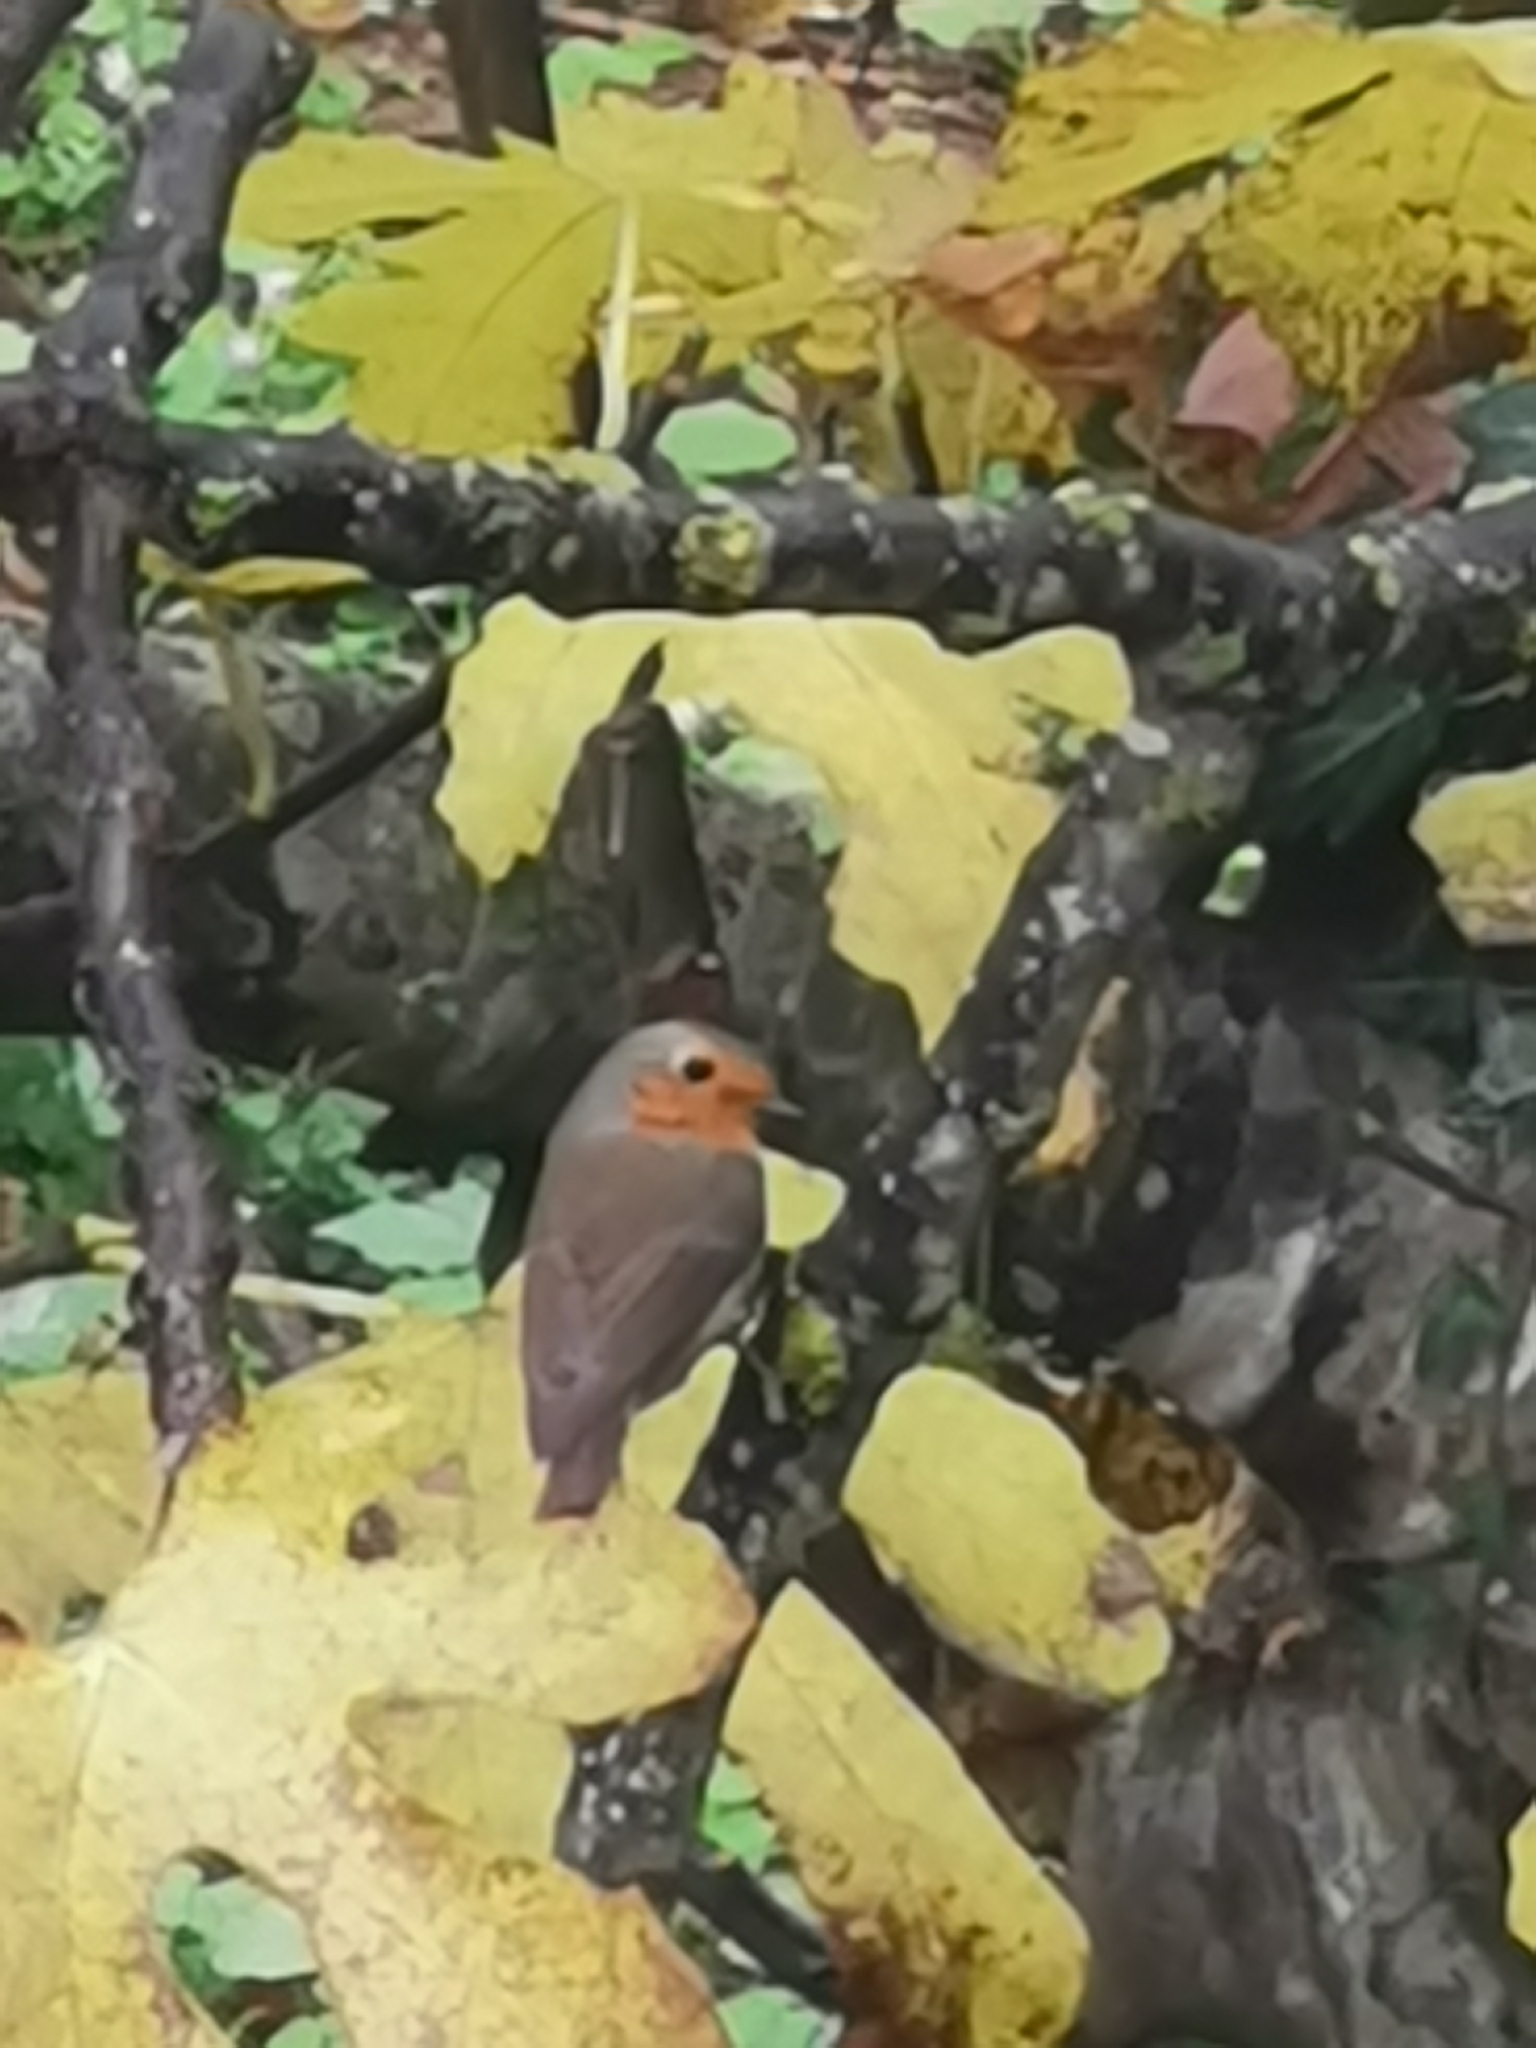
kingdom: Animalia
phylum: Chordata
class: Aves
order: Passeriformes
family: Muscicapidae
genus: Erithacus
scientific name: Erithacus rubecula
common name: European robin
